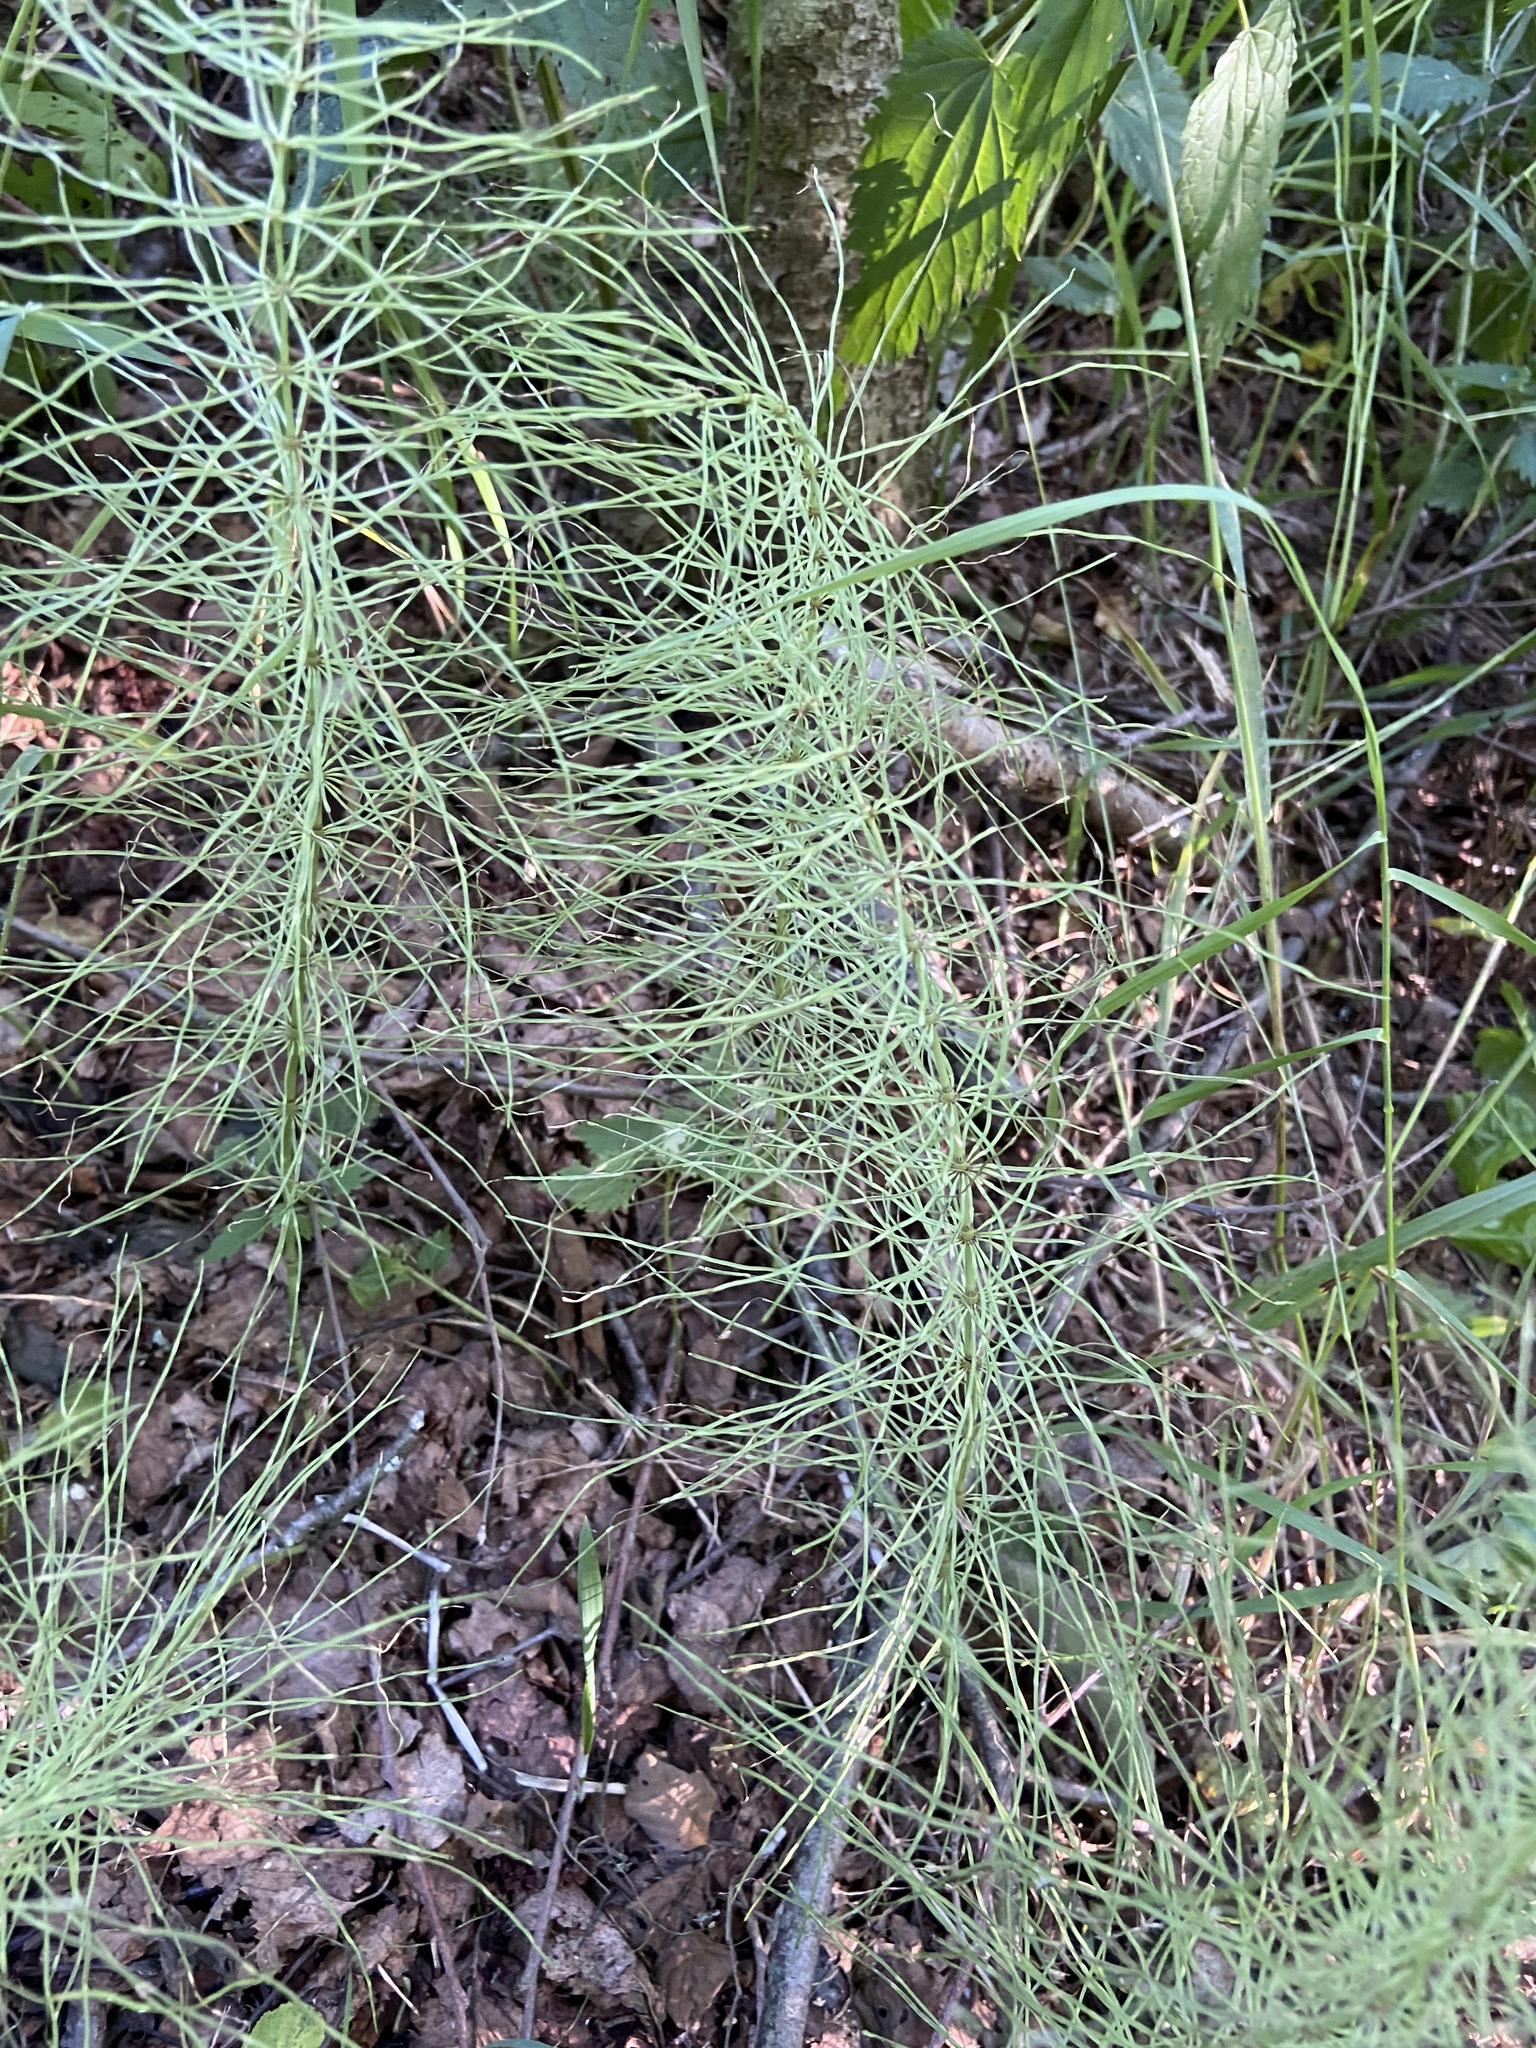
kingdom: Plantae
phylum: Tracheophyta
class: Polypodiopsida
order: Equisetales
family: Equisetaceae
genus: Equisetum
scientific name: Equisetum pratense
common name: Meadow horsetail
